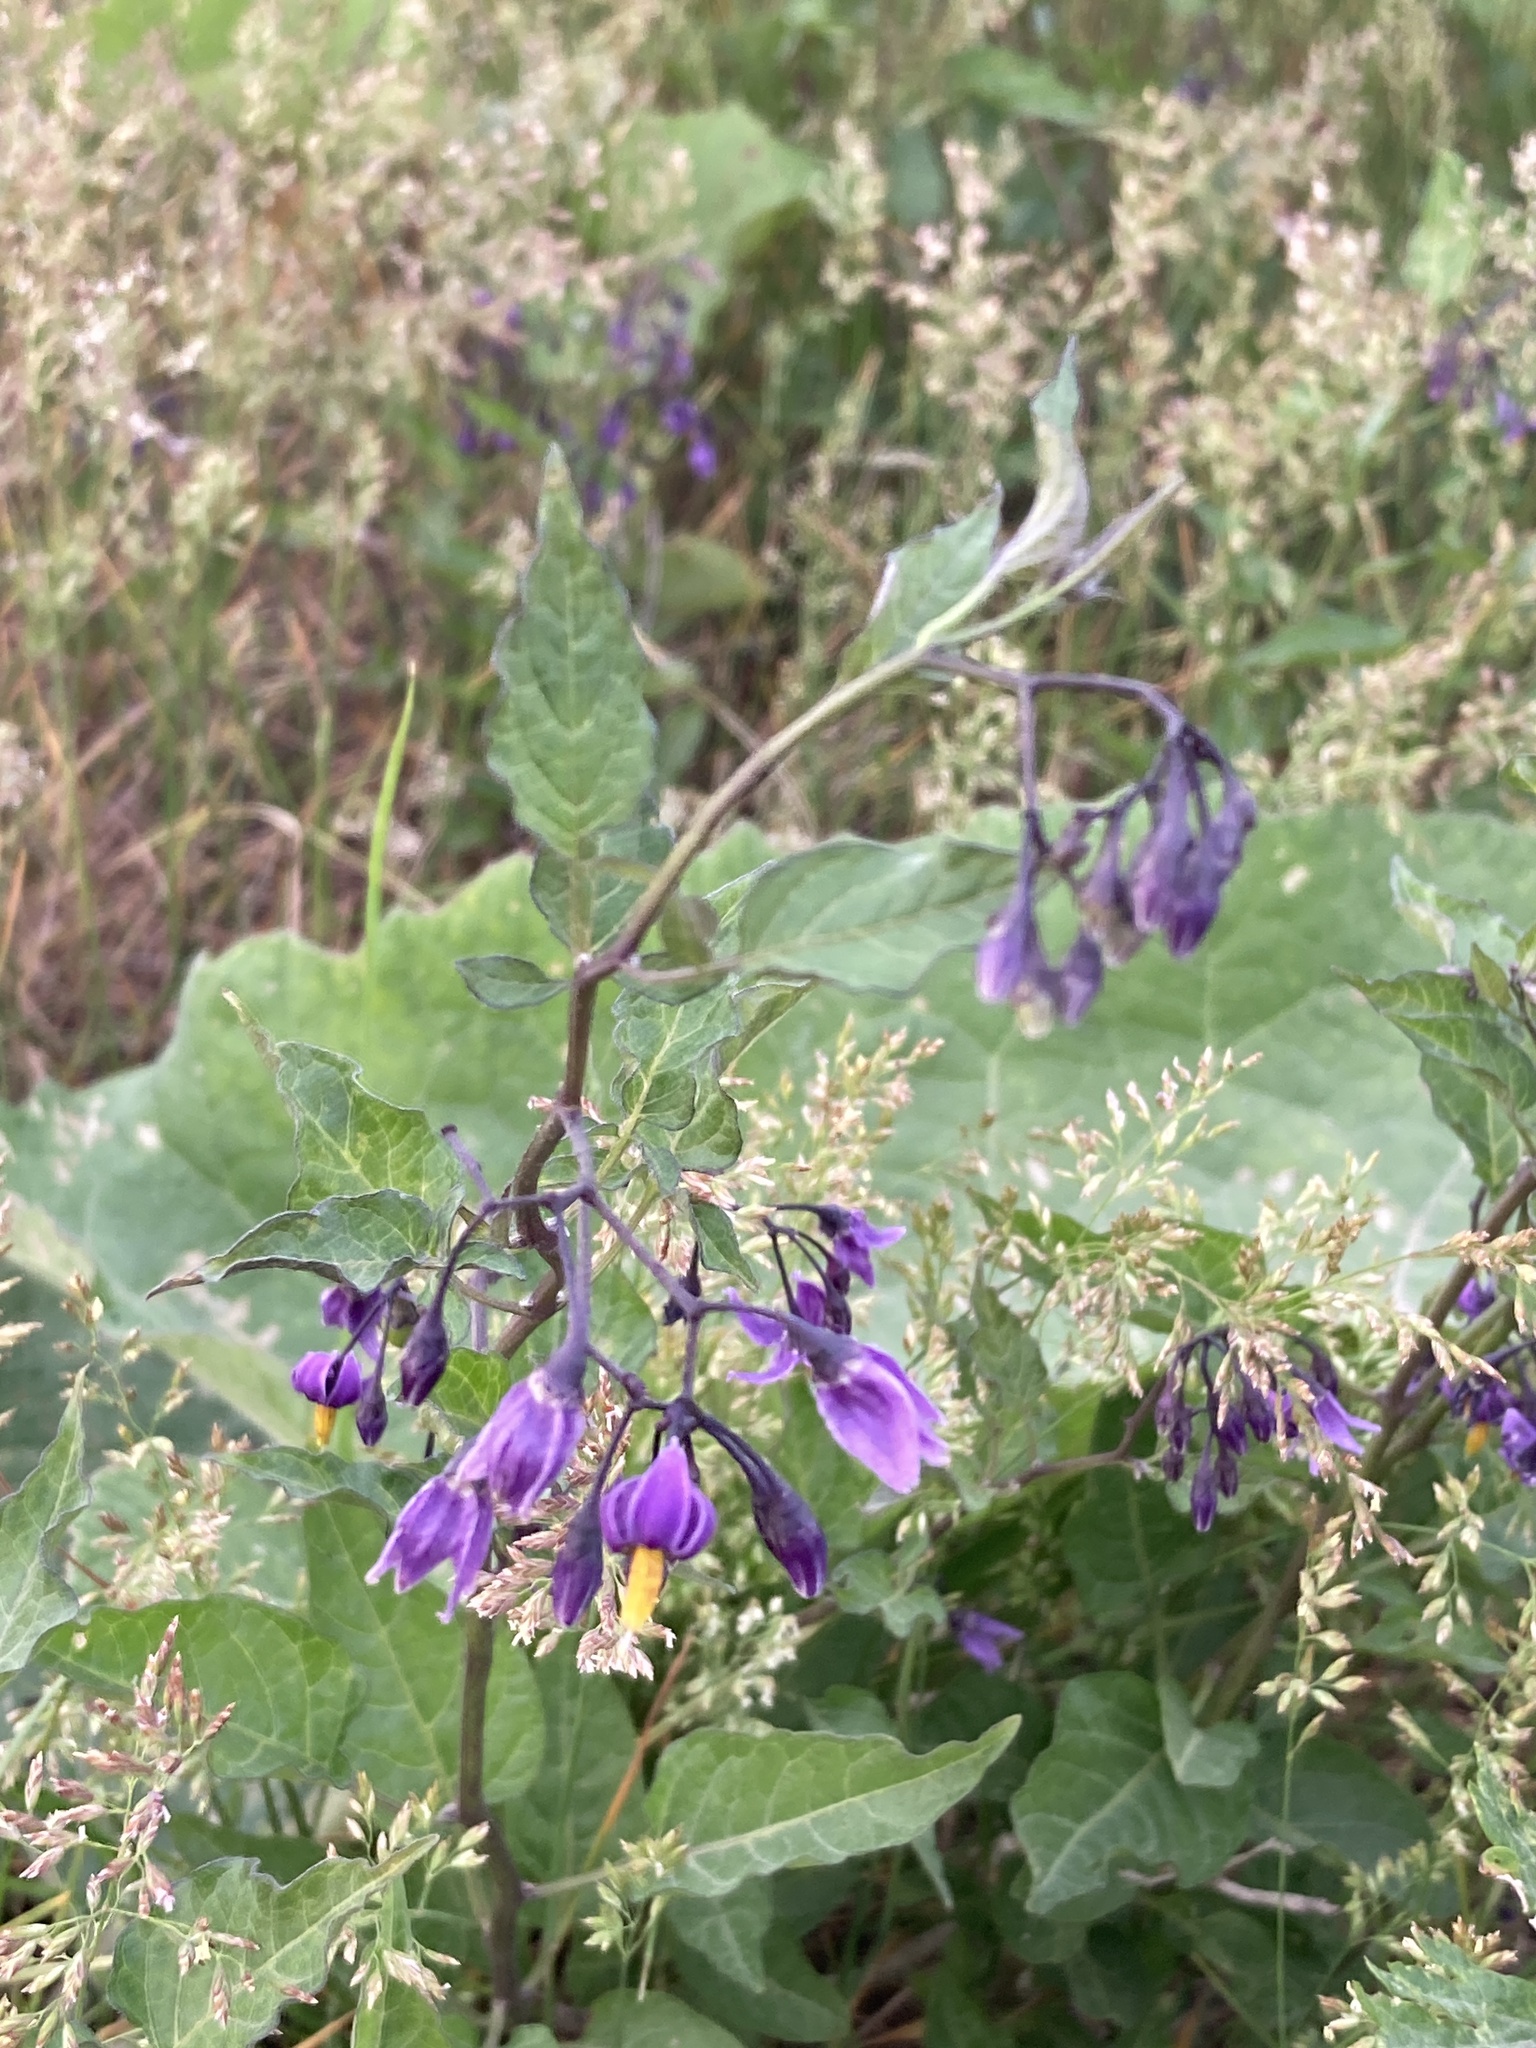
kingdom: Plantae
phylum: Tracheophyta
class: Magnoliopsida
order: Solanales
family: Solanaceae
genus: Solanum
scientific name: Solanum dulcamara
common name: Climbing nightshade
